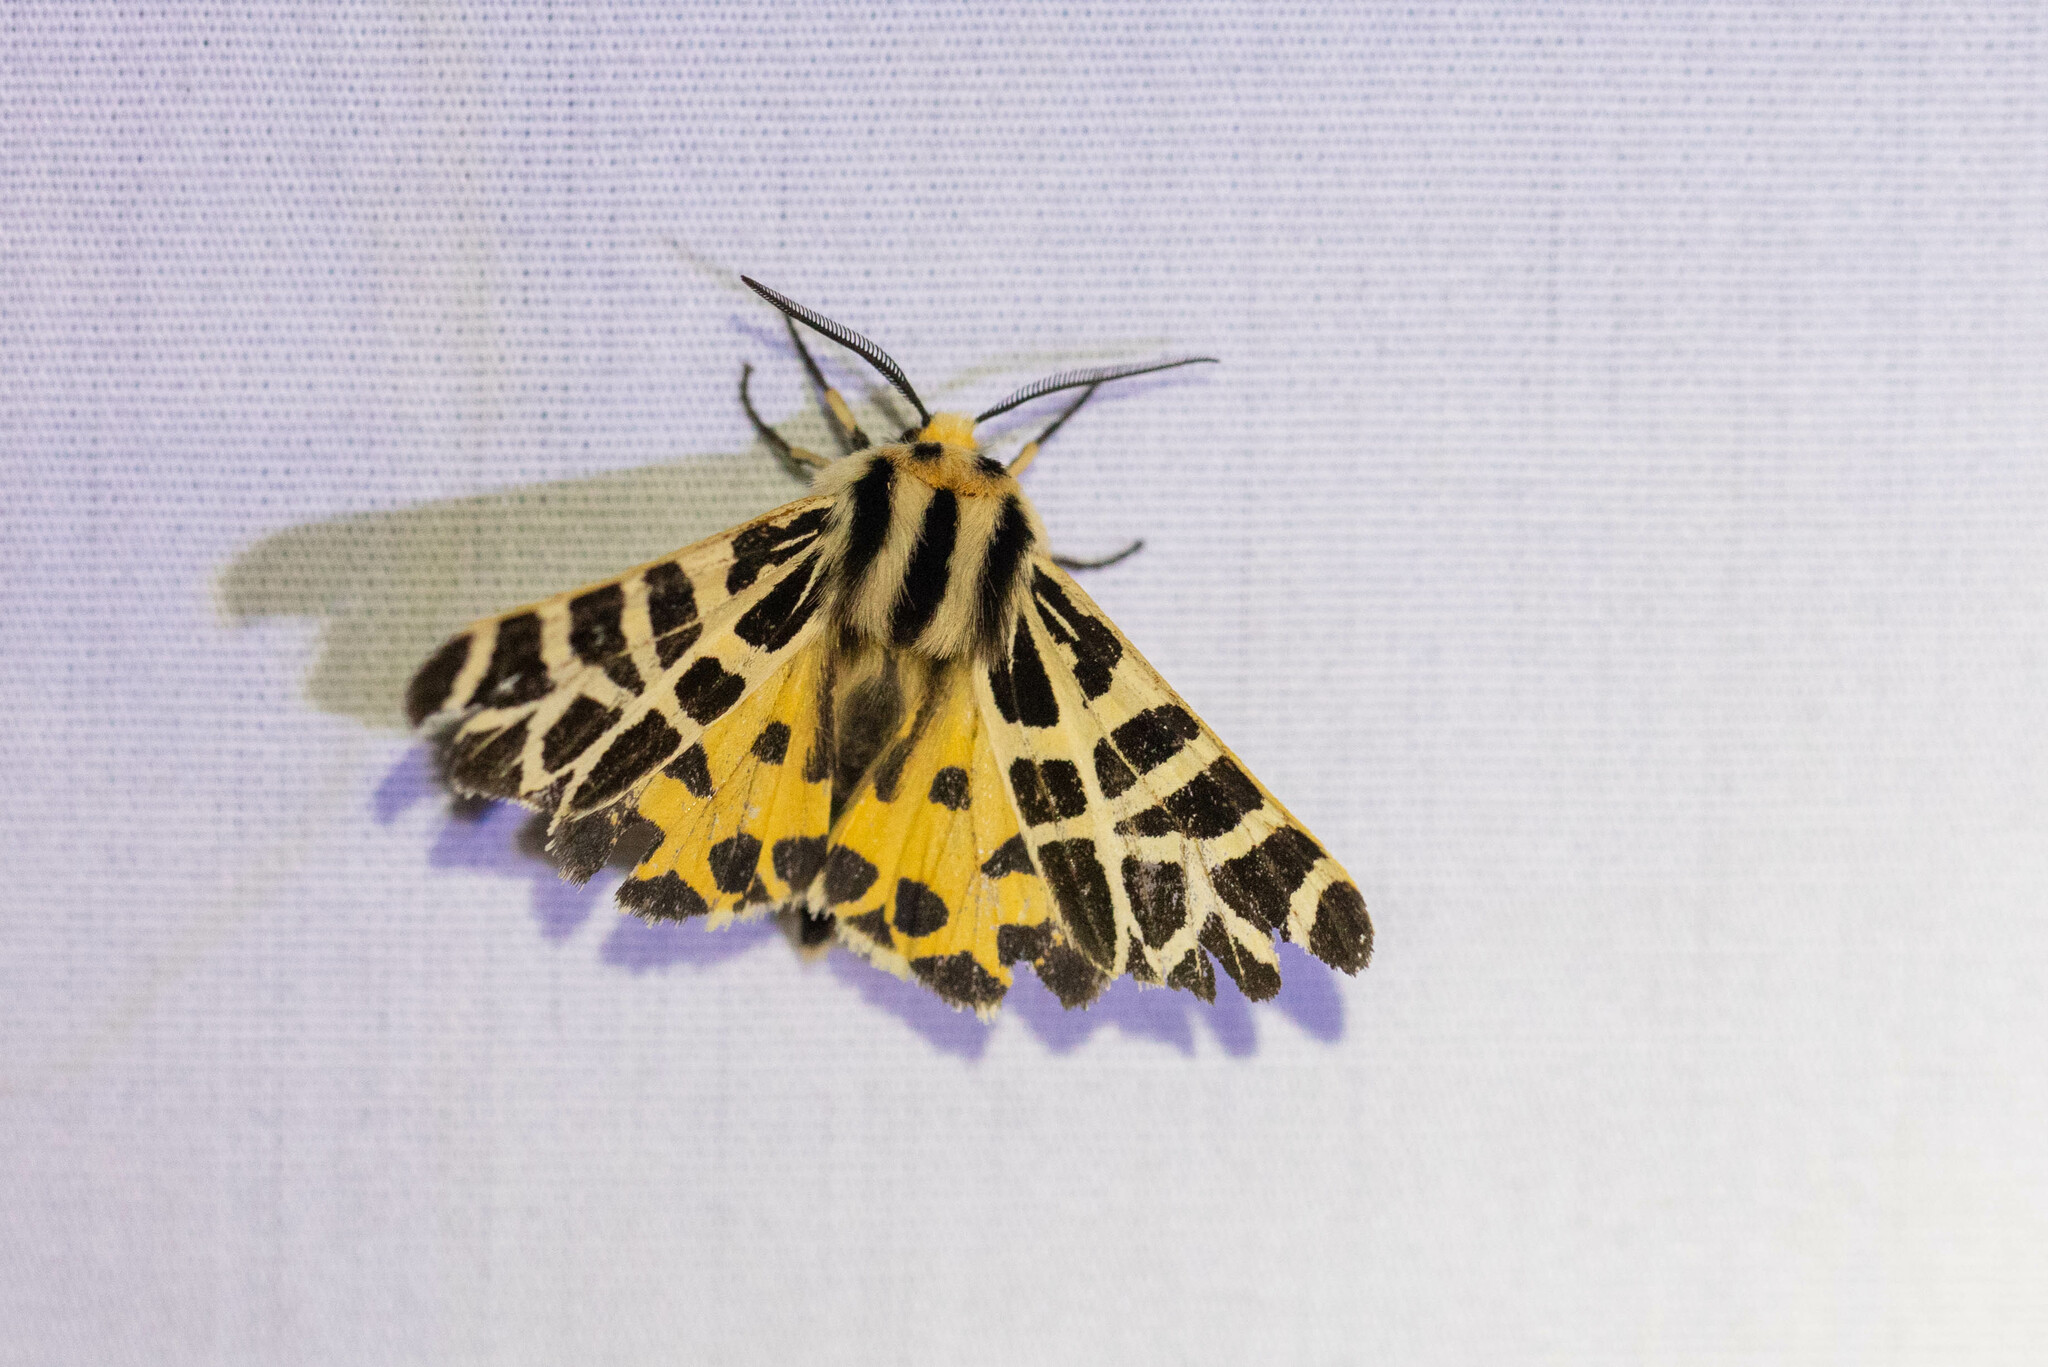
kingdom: Animalia
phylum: Arthropoda
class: Insecta
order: Lepidoptera
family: Erebidae
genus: Apantesis
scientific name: Apantesis
